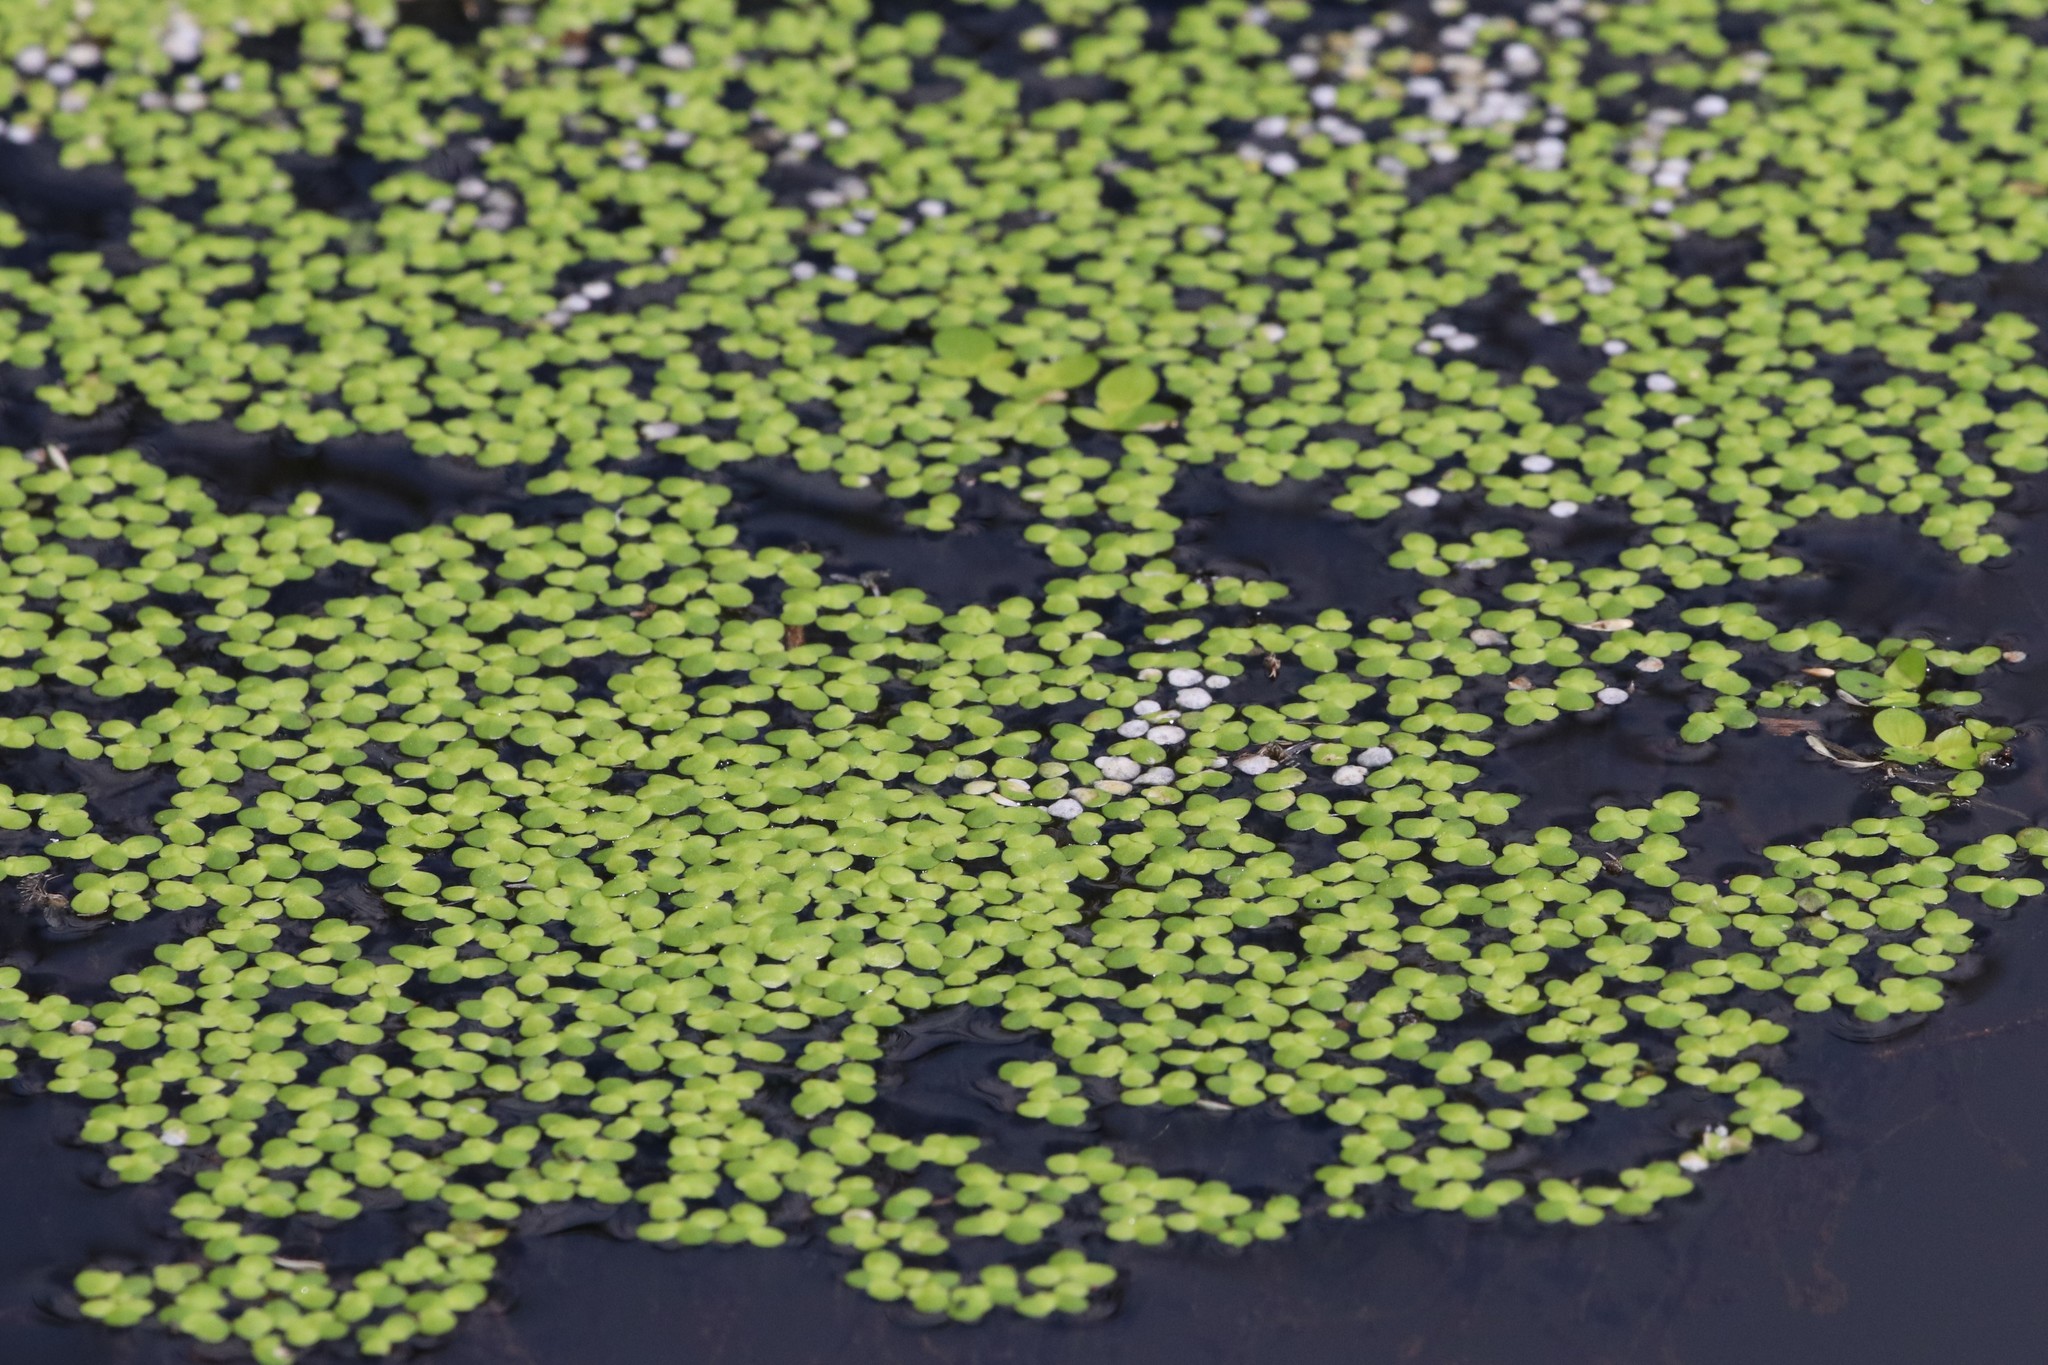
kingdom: Plantae
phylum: Tracheophyta
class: Liliopsida
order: Alismatales
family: Araceae
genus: Lemna
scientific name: Lemna minor
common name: Common duckweed
